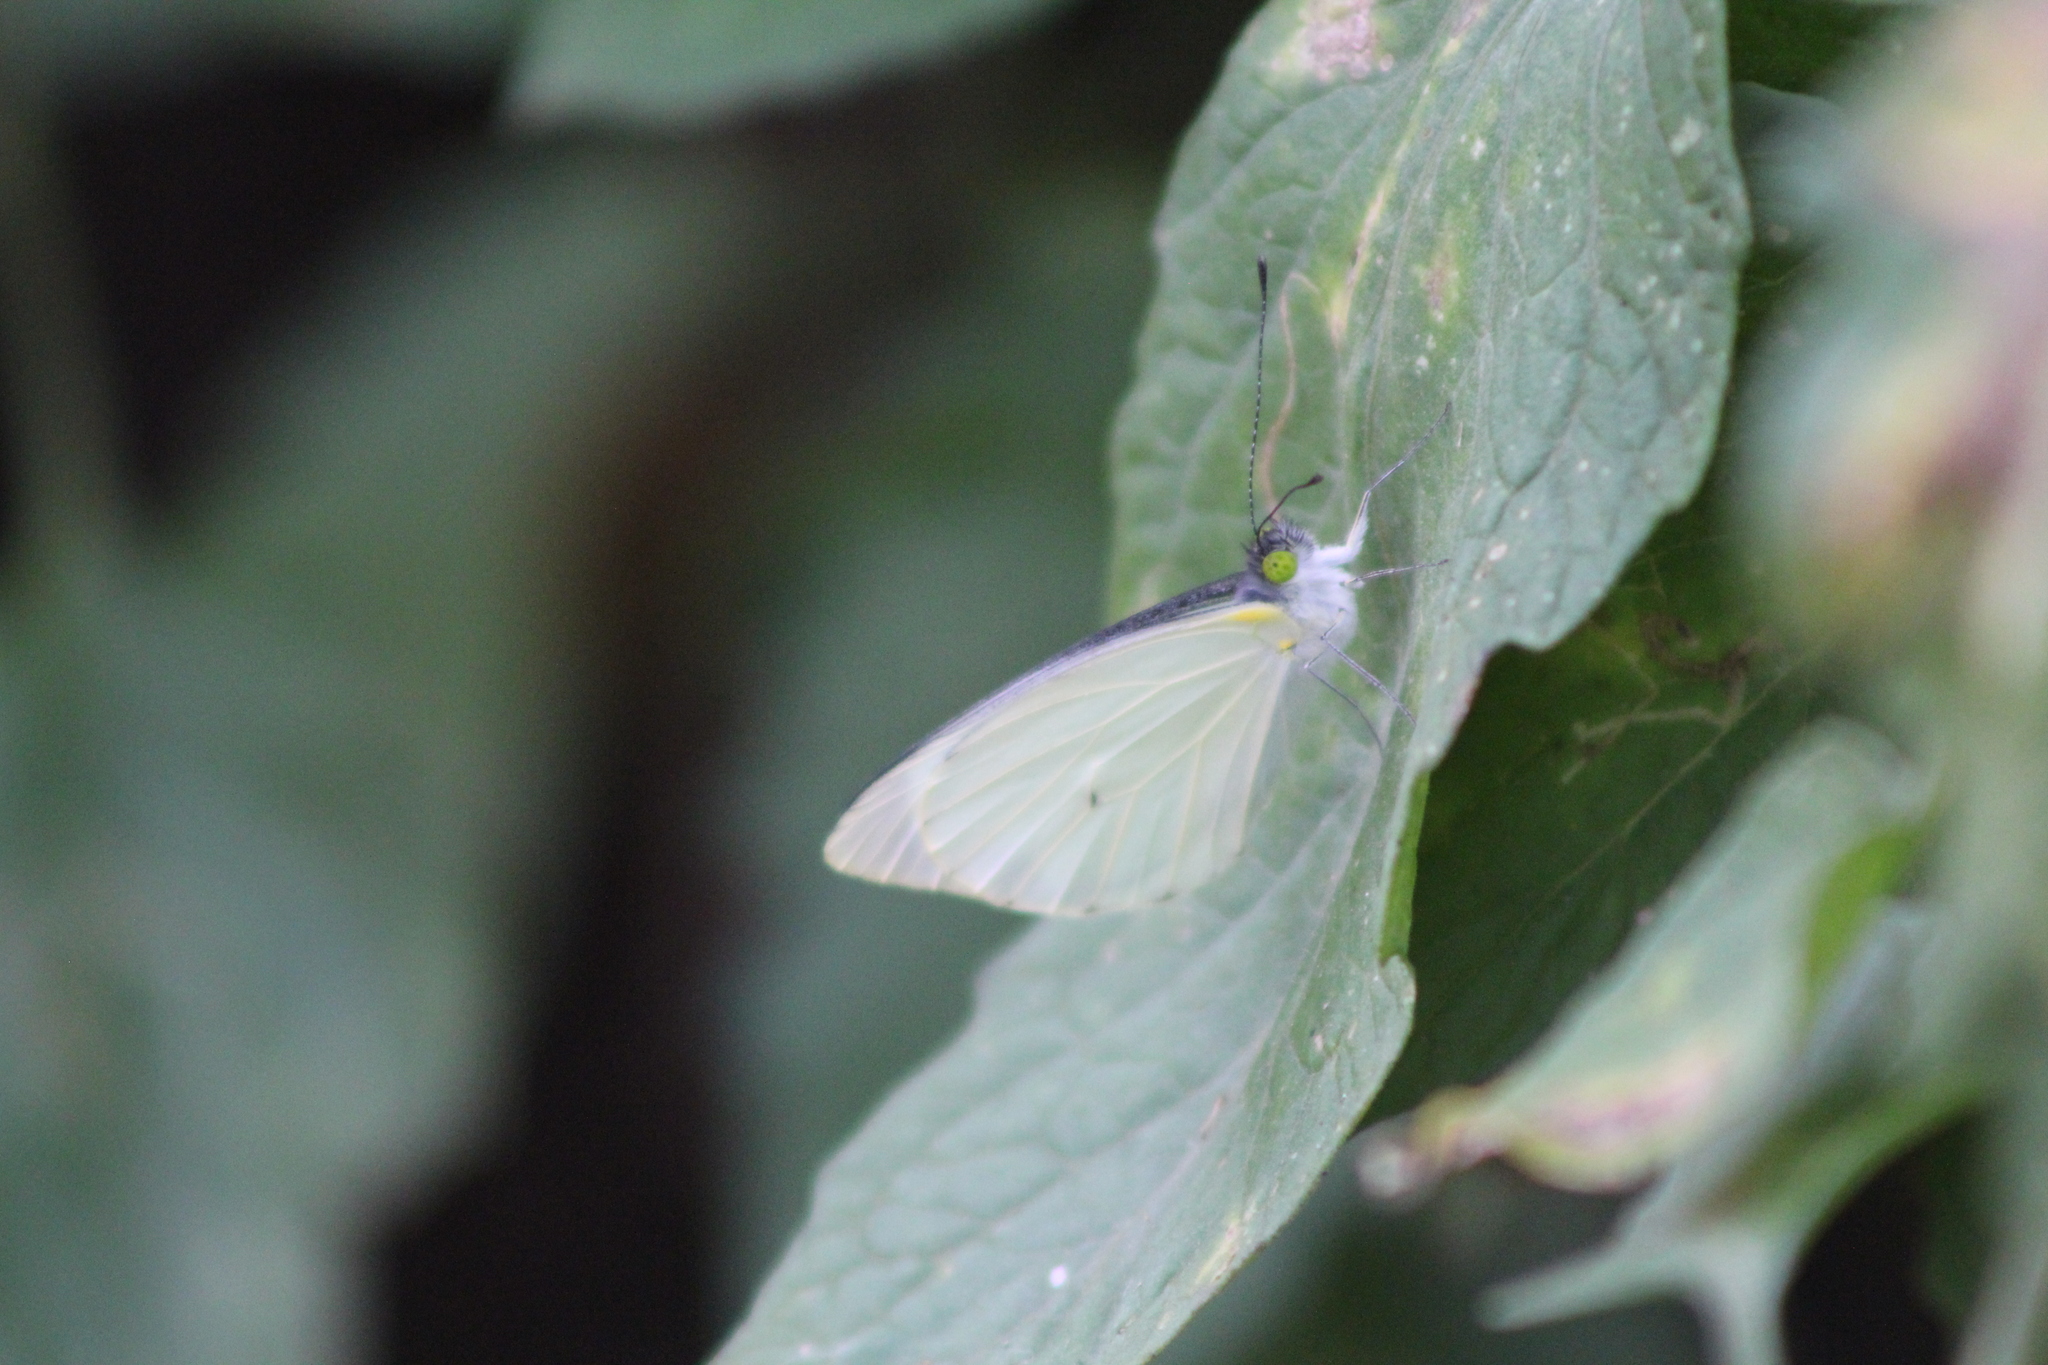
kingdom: Animalia
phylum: Arthropoda
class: Insecta
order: Lepidoptera
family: Pieridae
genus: Leptophobia
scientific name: Leptophobia aripa
